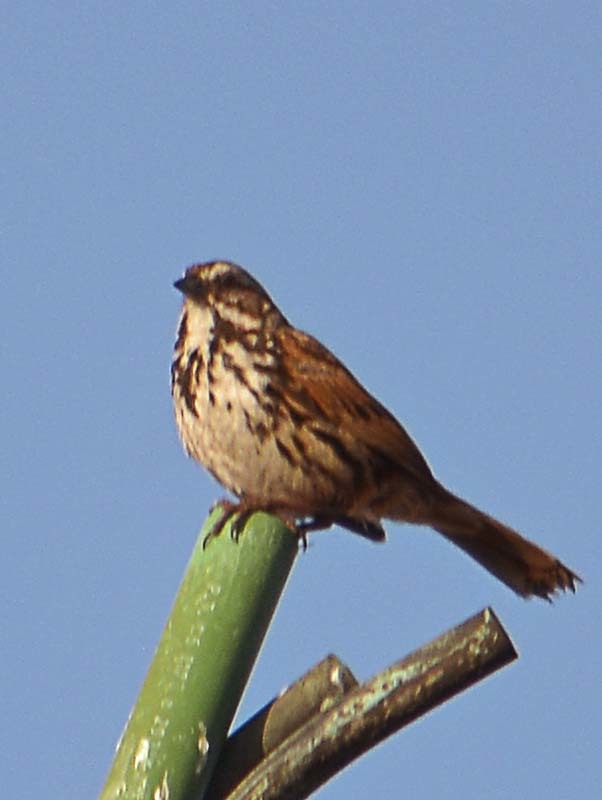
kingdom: Animalia
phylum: Chordata
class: Aves
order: Passeriformes
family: Passerellidae
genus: Melospiza
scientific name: Melospiza melodia
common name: Song sparrow
